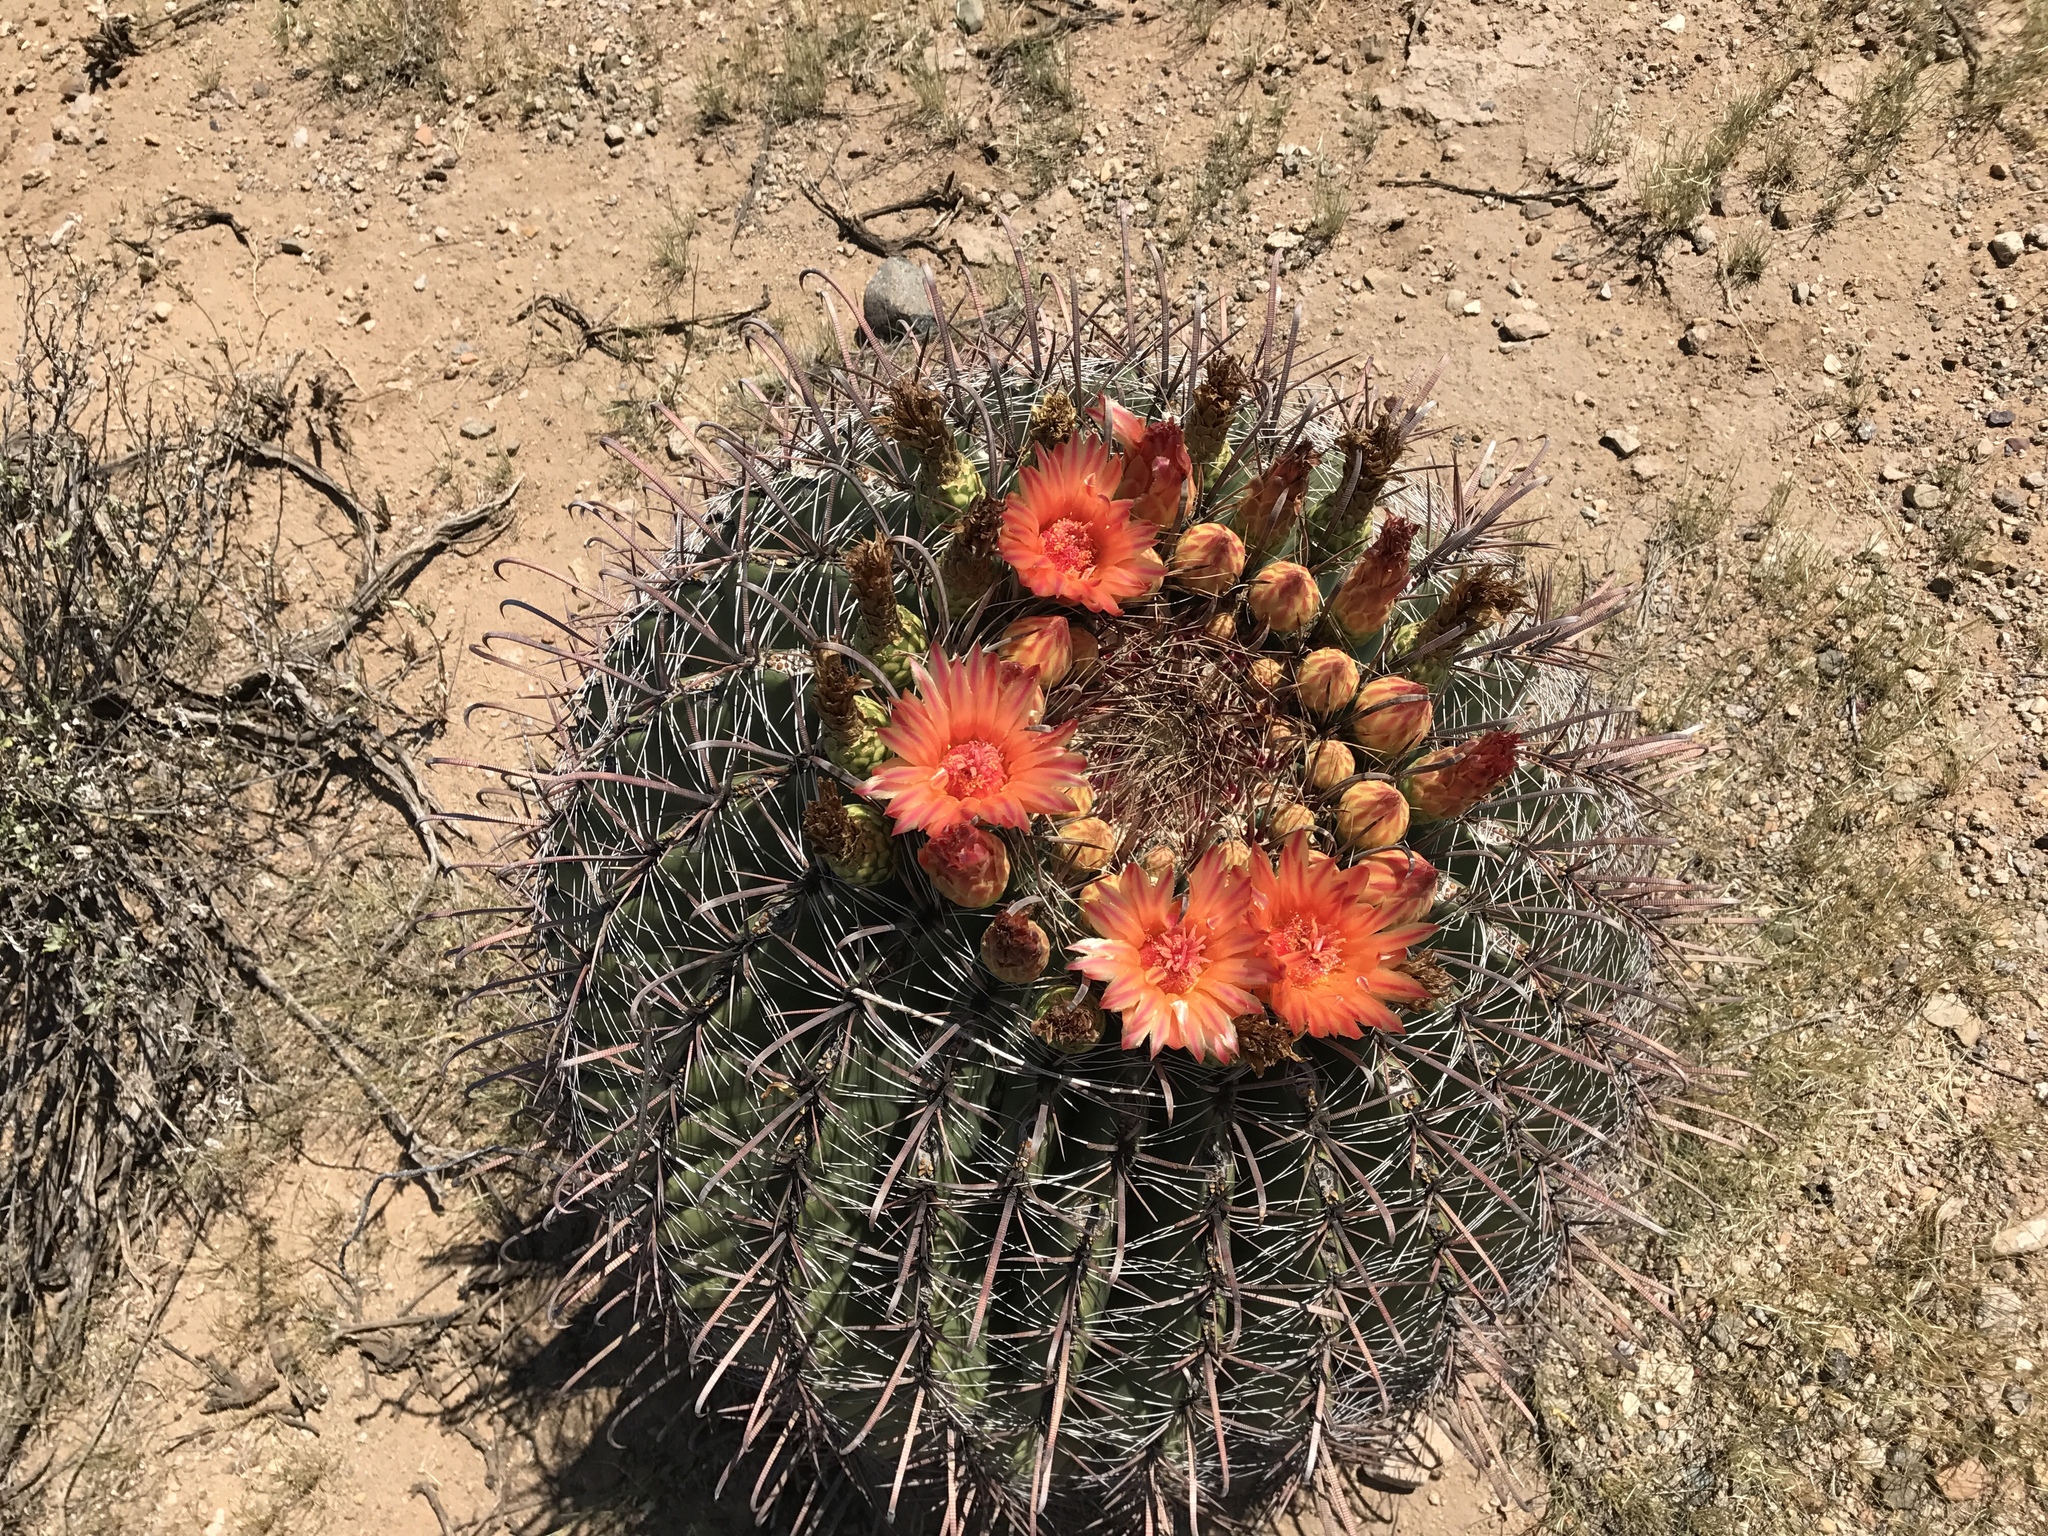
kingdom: Plantae
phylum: Tracheophyta
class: Magnoliopsida
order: Caryophyllales
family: Cactaceae
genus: Ferocactus
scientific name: Ferocactus wislizeni
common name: Candy barrel cactus
